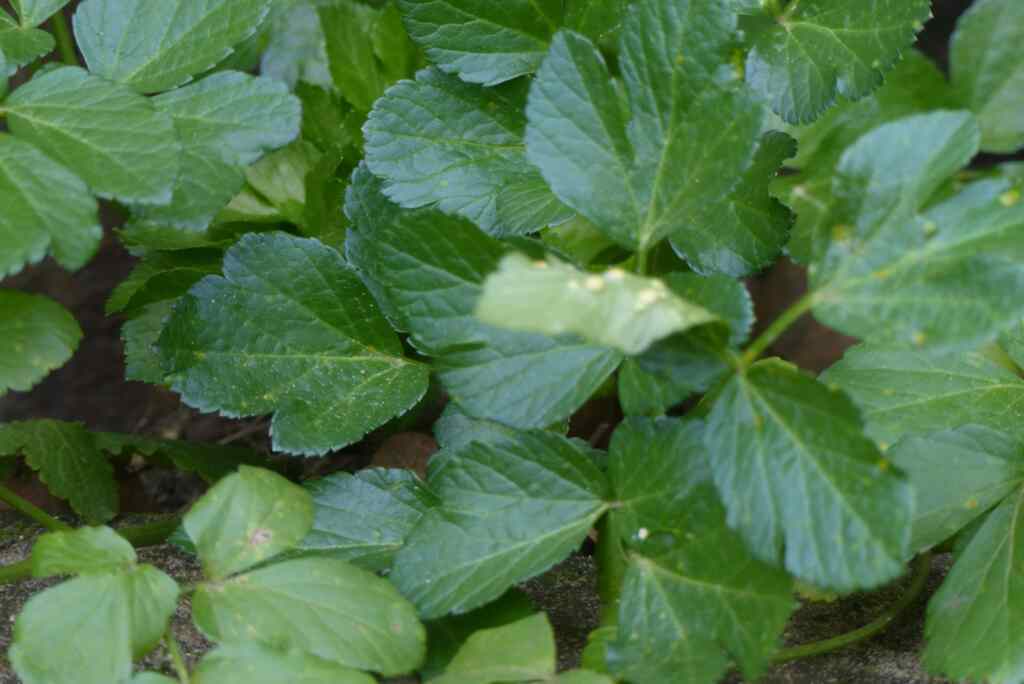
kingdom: Fungi
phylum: Basidiomycota
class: Pucciniomycetes
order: Pucciniales
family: Pucciniaceae
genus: Puccinia
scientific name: Puccinia smyrnii
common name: Alexanders rust
